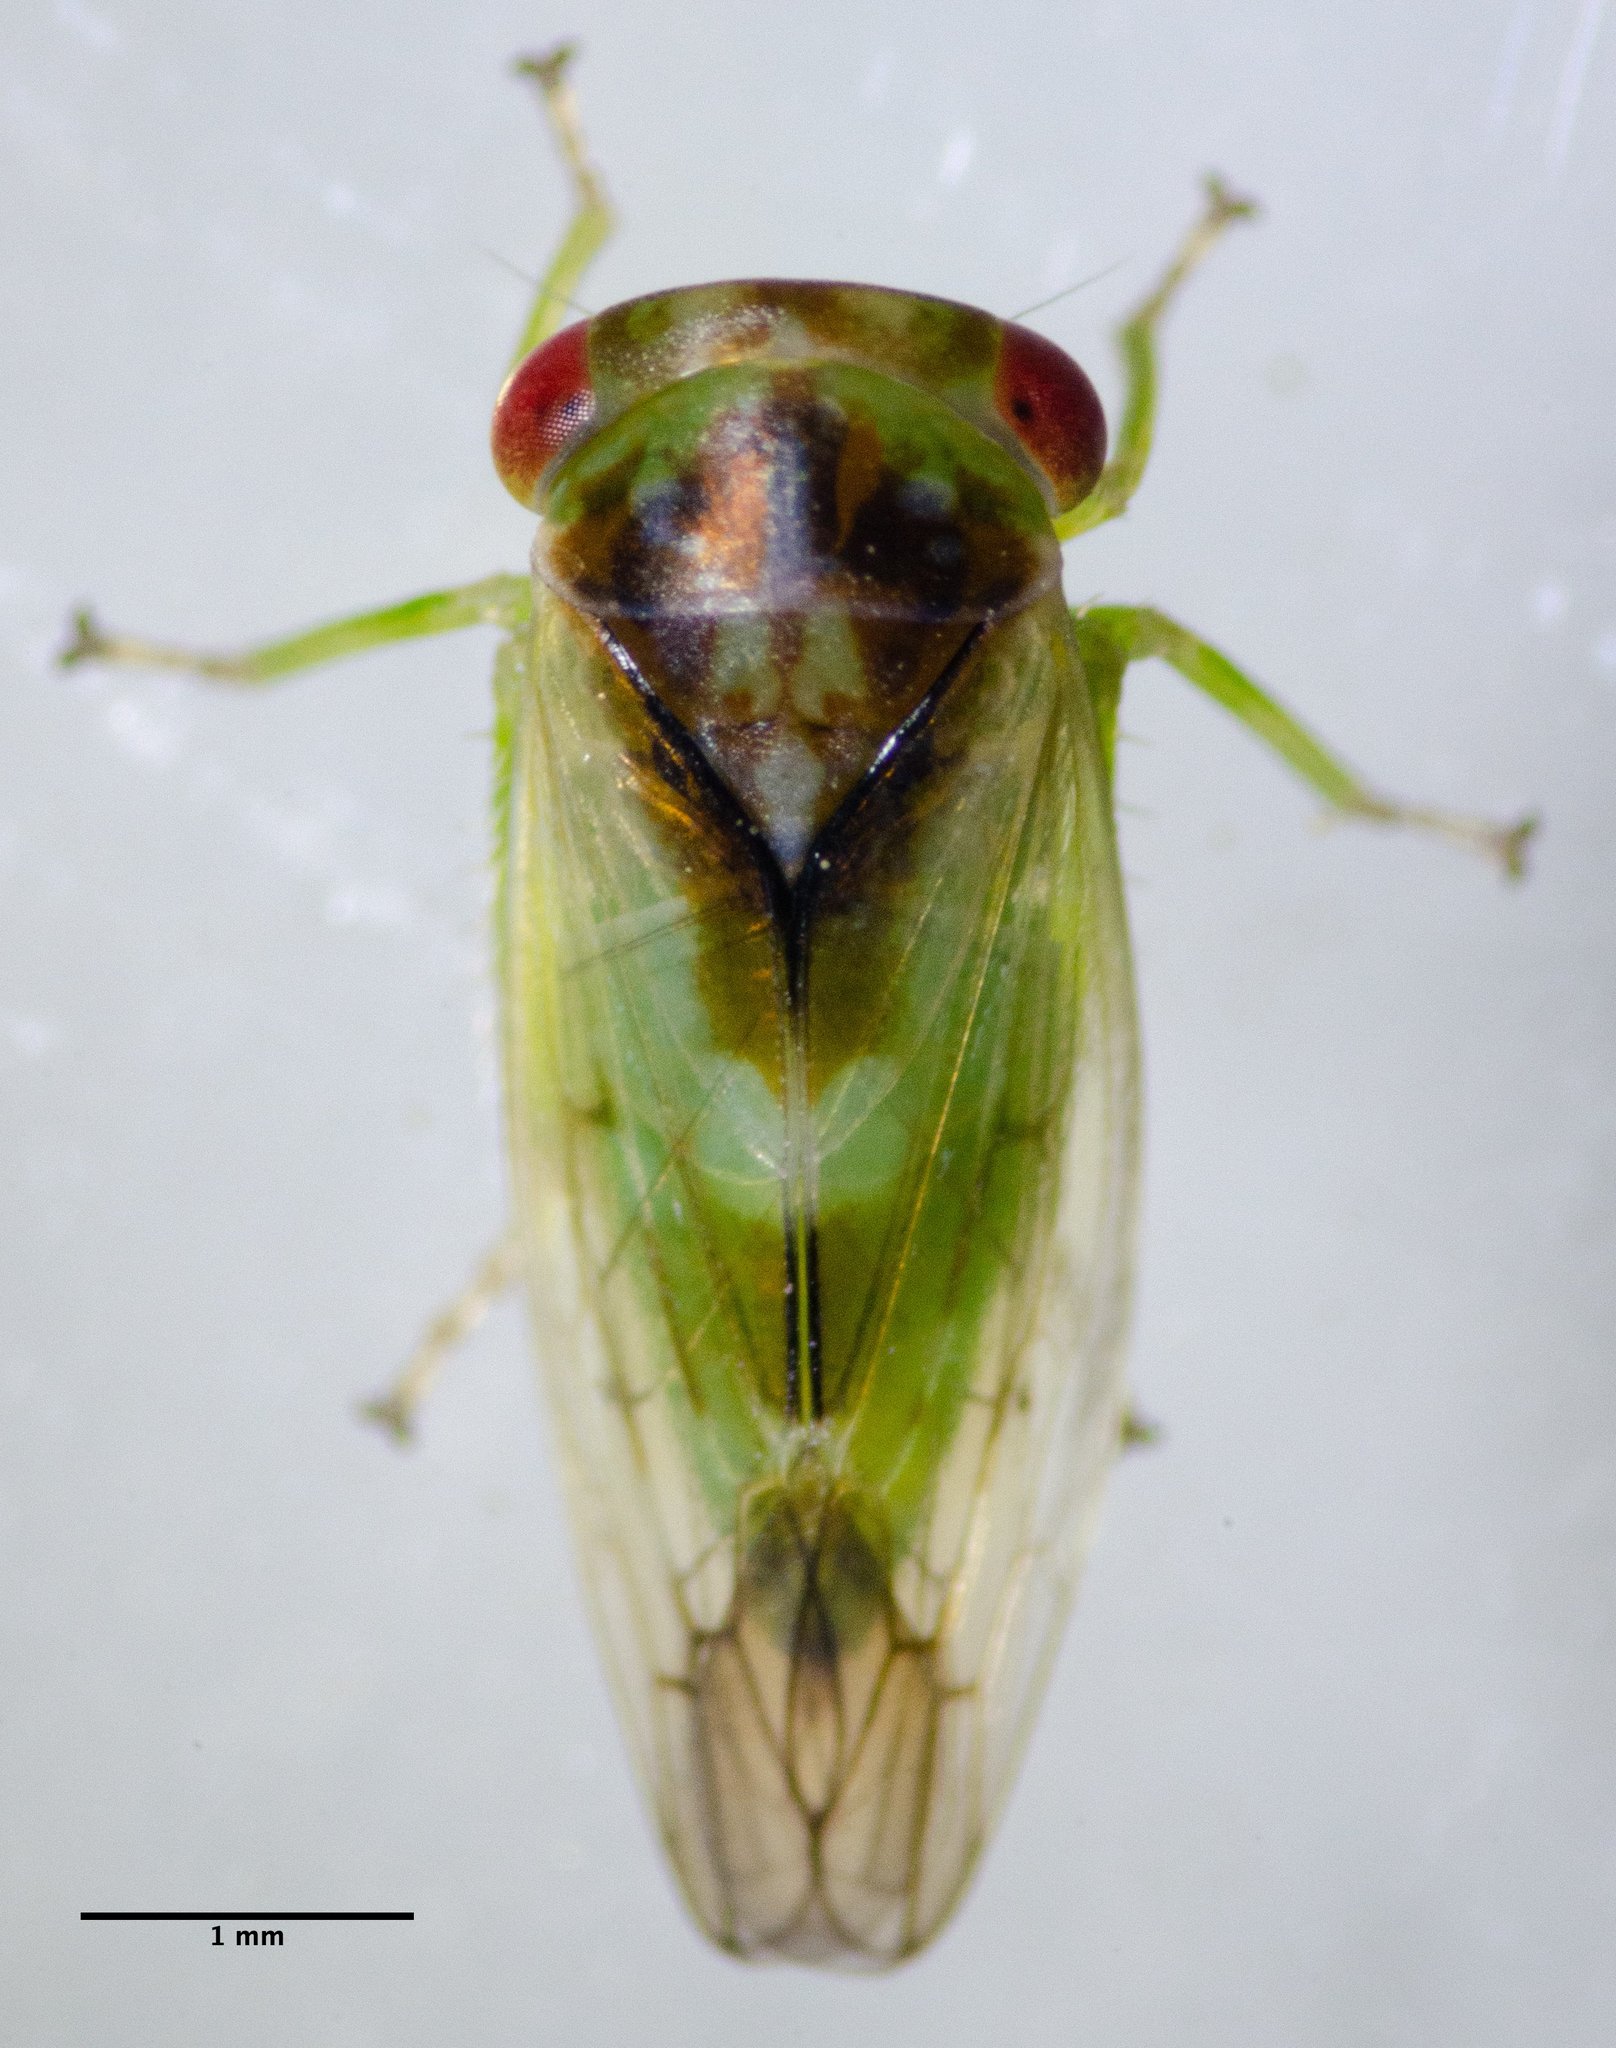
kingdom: Animalia
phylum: Arthropoda
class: Insecta
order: Hemiptera
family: Cicadellidae
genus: Idiocerus
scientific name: Idiocerus
